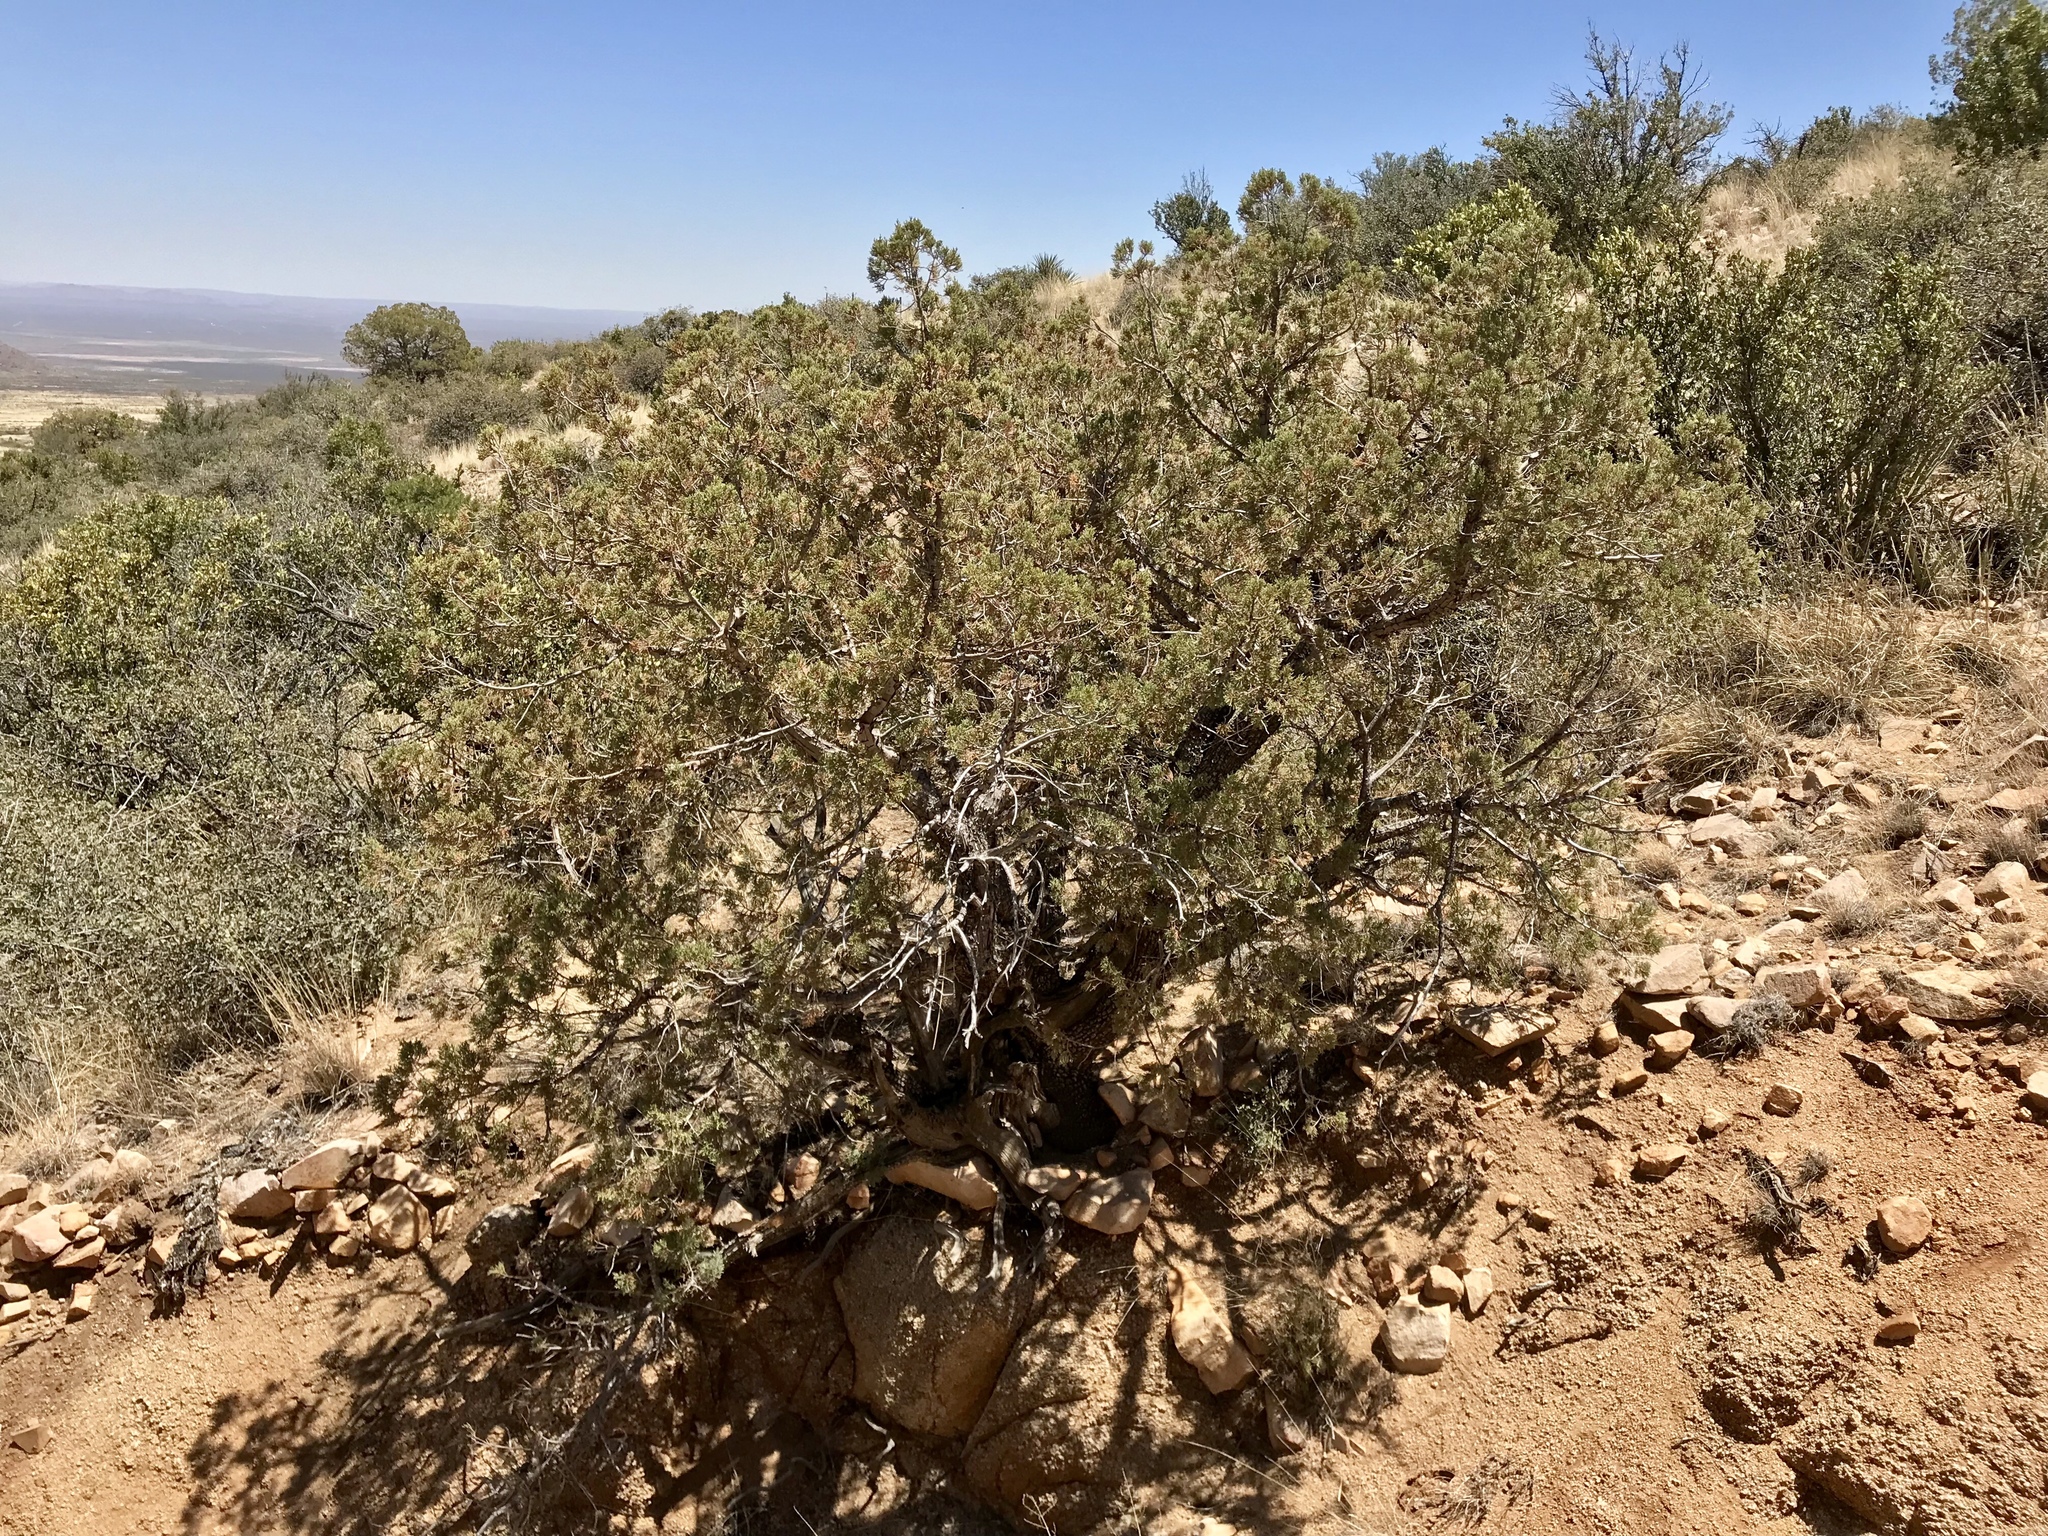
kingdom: Plantae
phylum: Tracheophyta
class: Pinopsida
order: Pinales
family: Cupressaceae
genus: Juniperus
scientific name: Juniperus monosperma
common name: One-seed juniper
